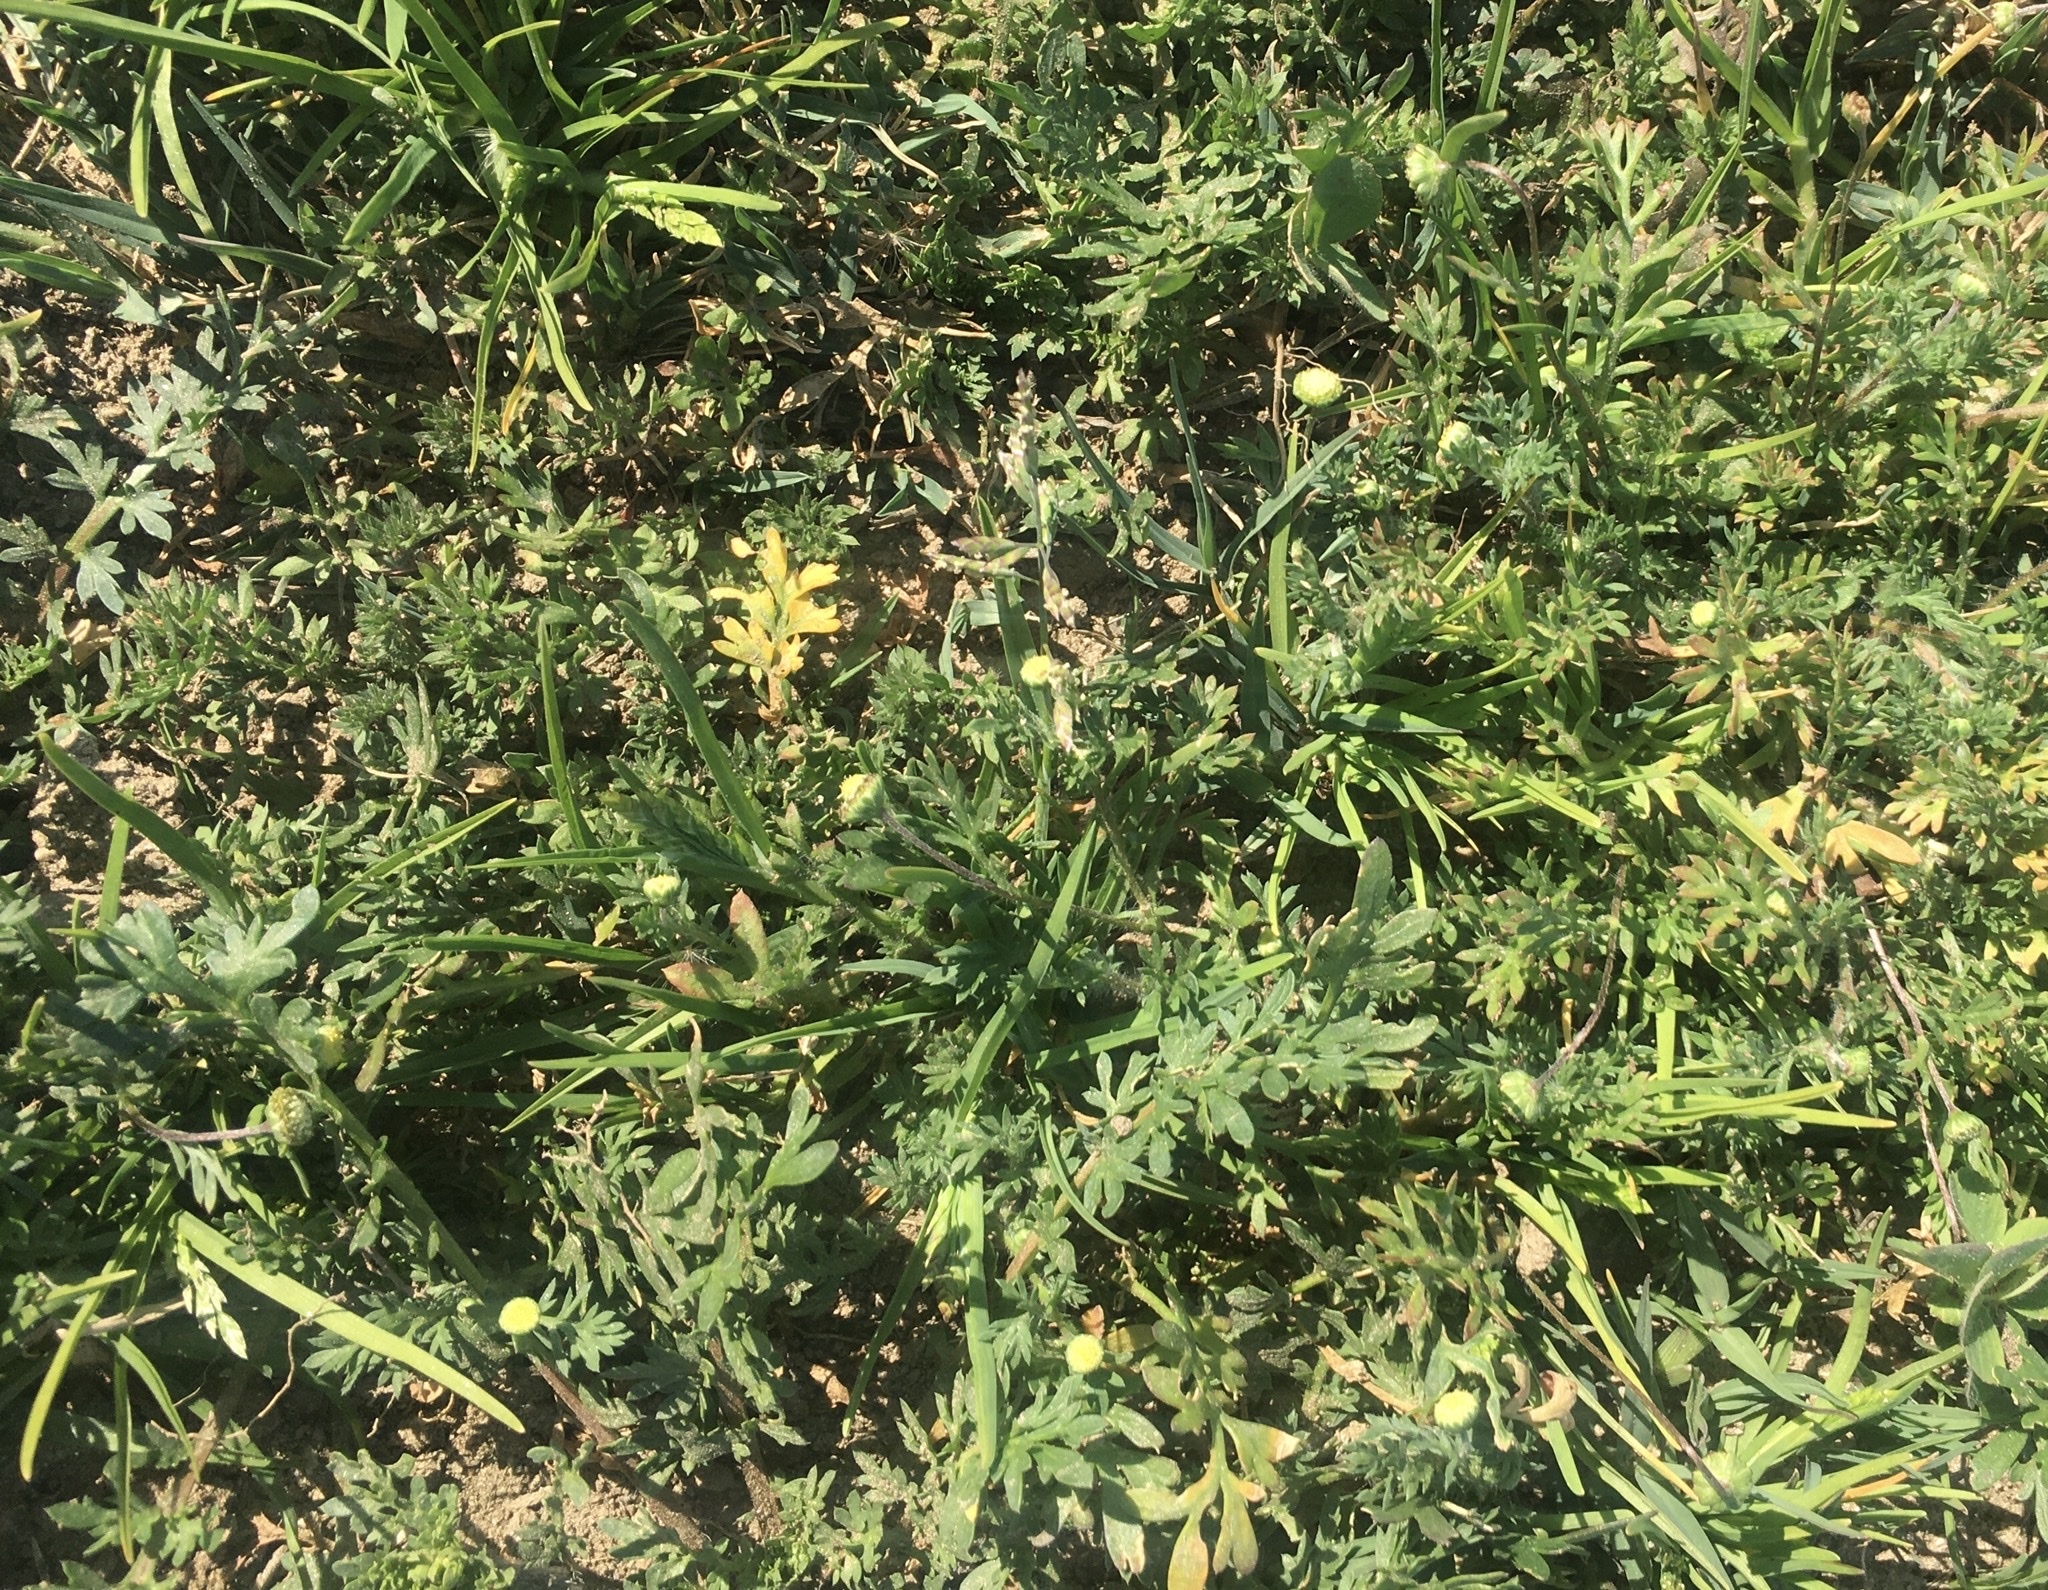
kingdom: Plantae
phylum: Tracheophyta
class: Magnoliopsida
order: Asterales
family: Asteraceae
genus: Cotula
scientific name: Cotula australis
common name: Australian waterbuttons
